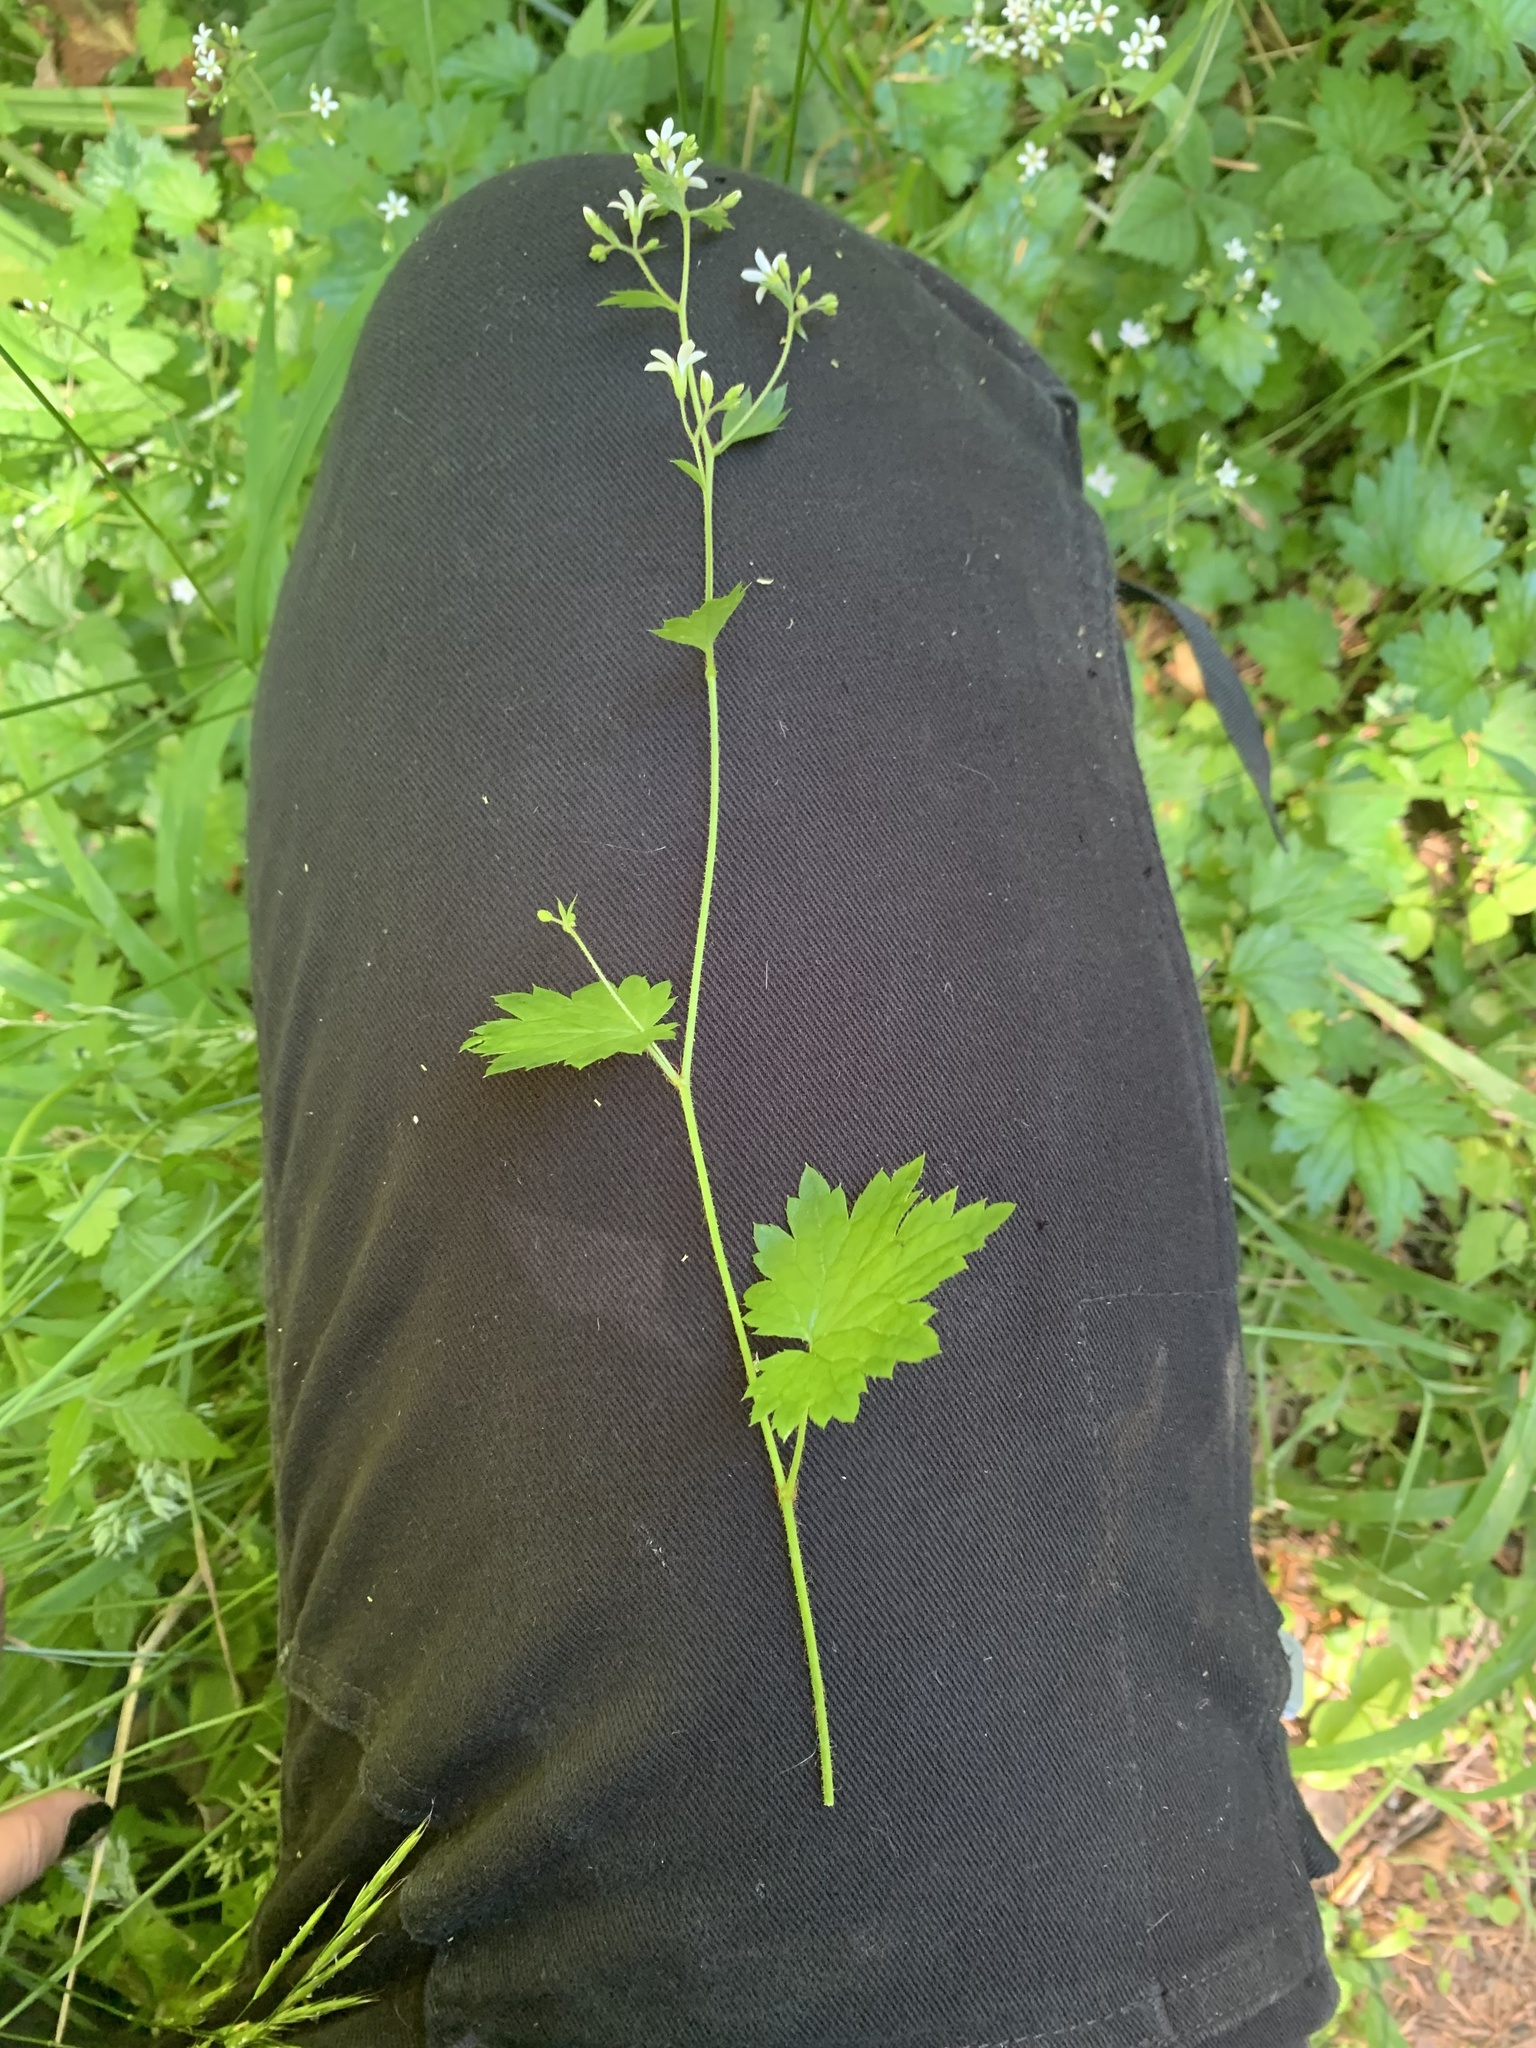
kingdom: Plantae
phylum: Tracheophyta
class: Magnoliopsida
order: Saxifragales
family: Saxifragaceae
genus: Boykinia
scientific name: Boykinia occidentalis
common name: Coast boykinia
